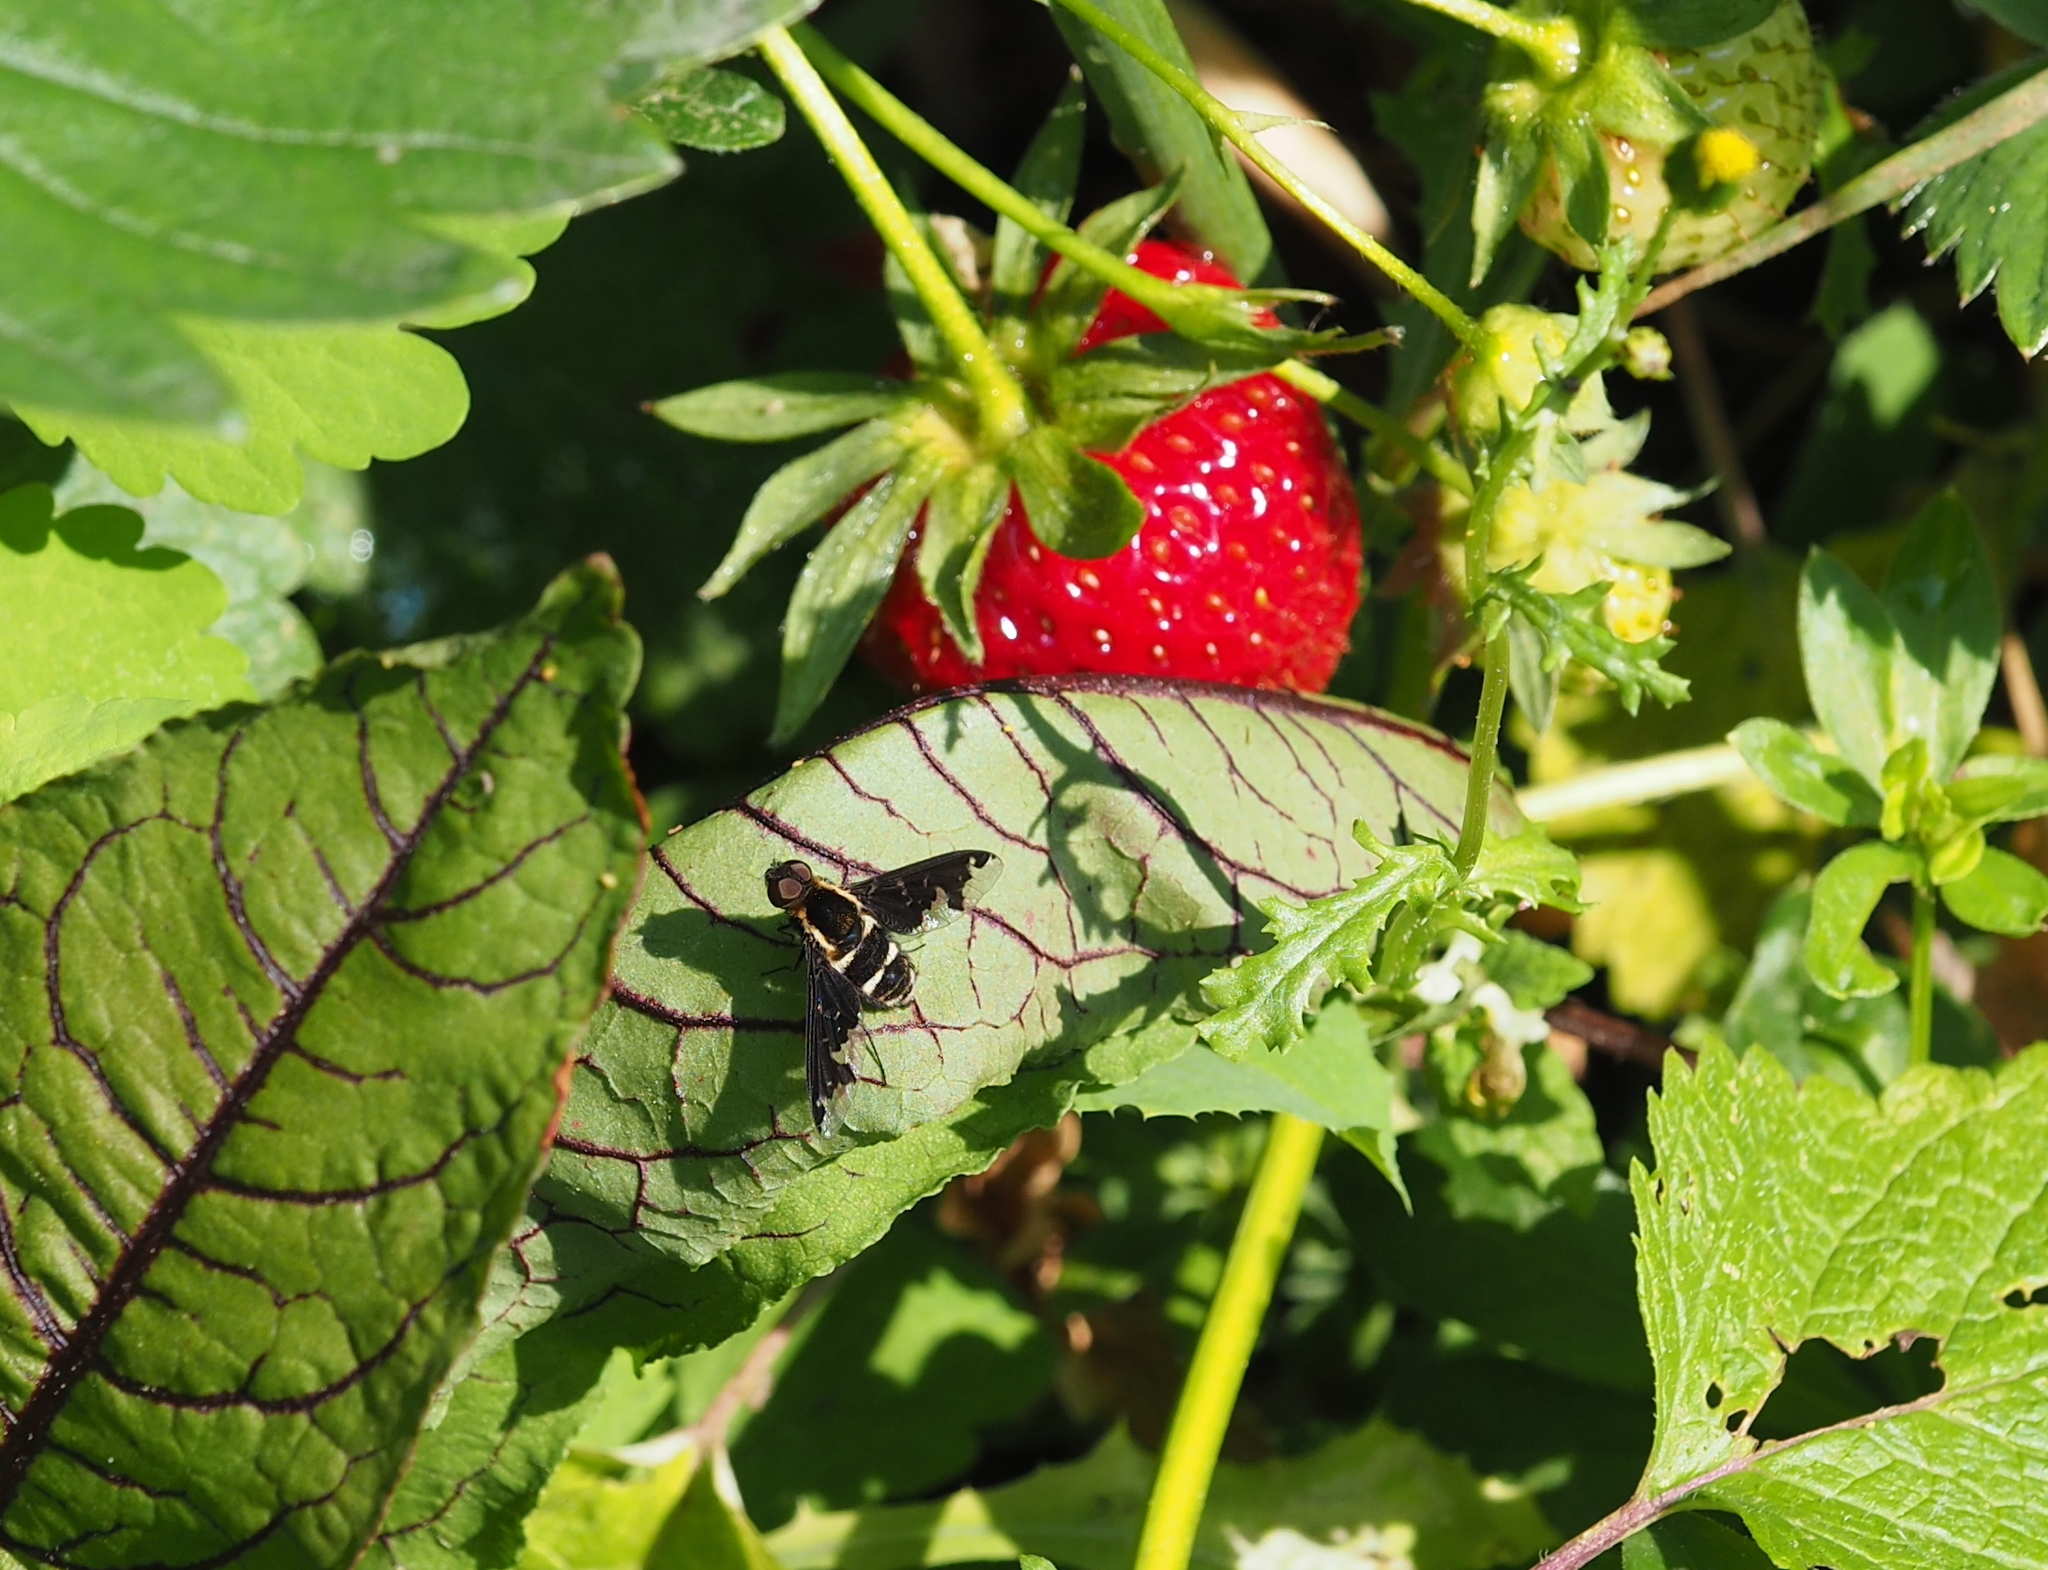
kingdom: Animalia
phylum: Arthropoda
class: Insecta
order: Diptera
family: Bombyliidae
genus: Hemipenthes
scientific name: Hemipenthes maura
